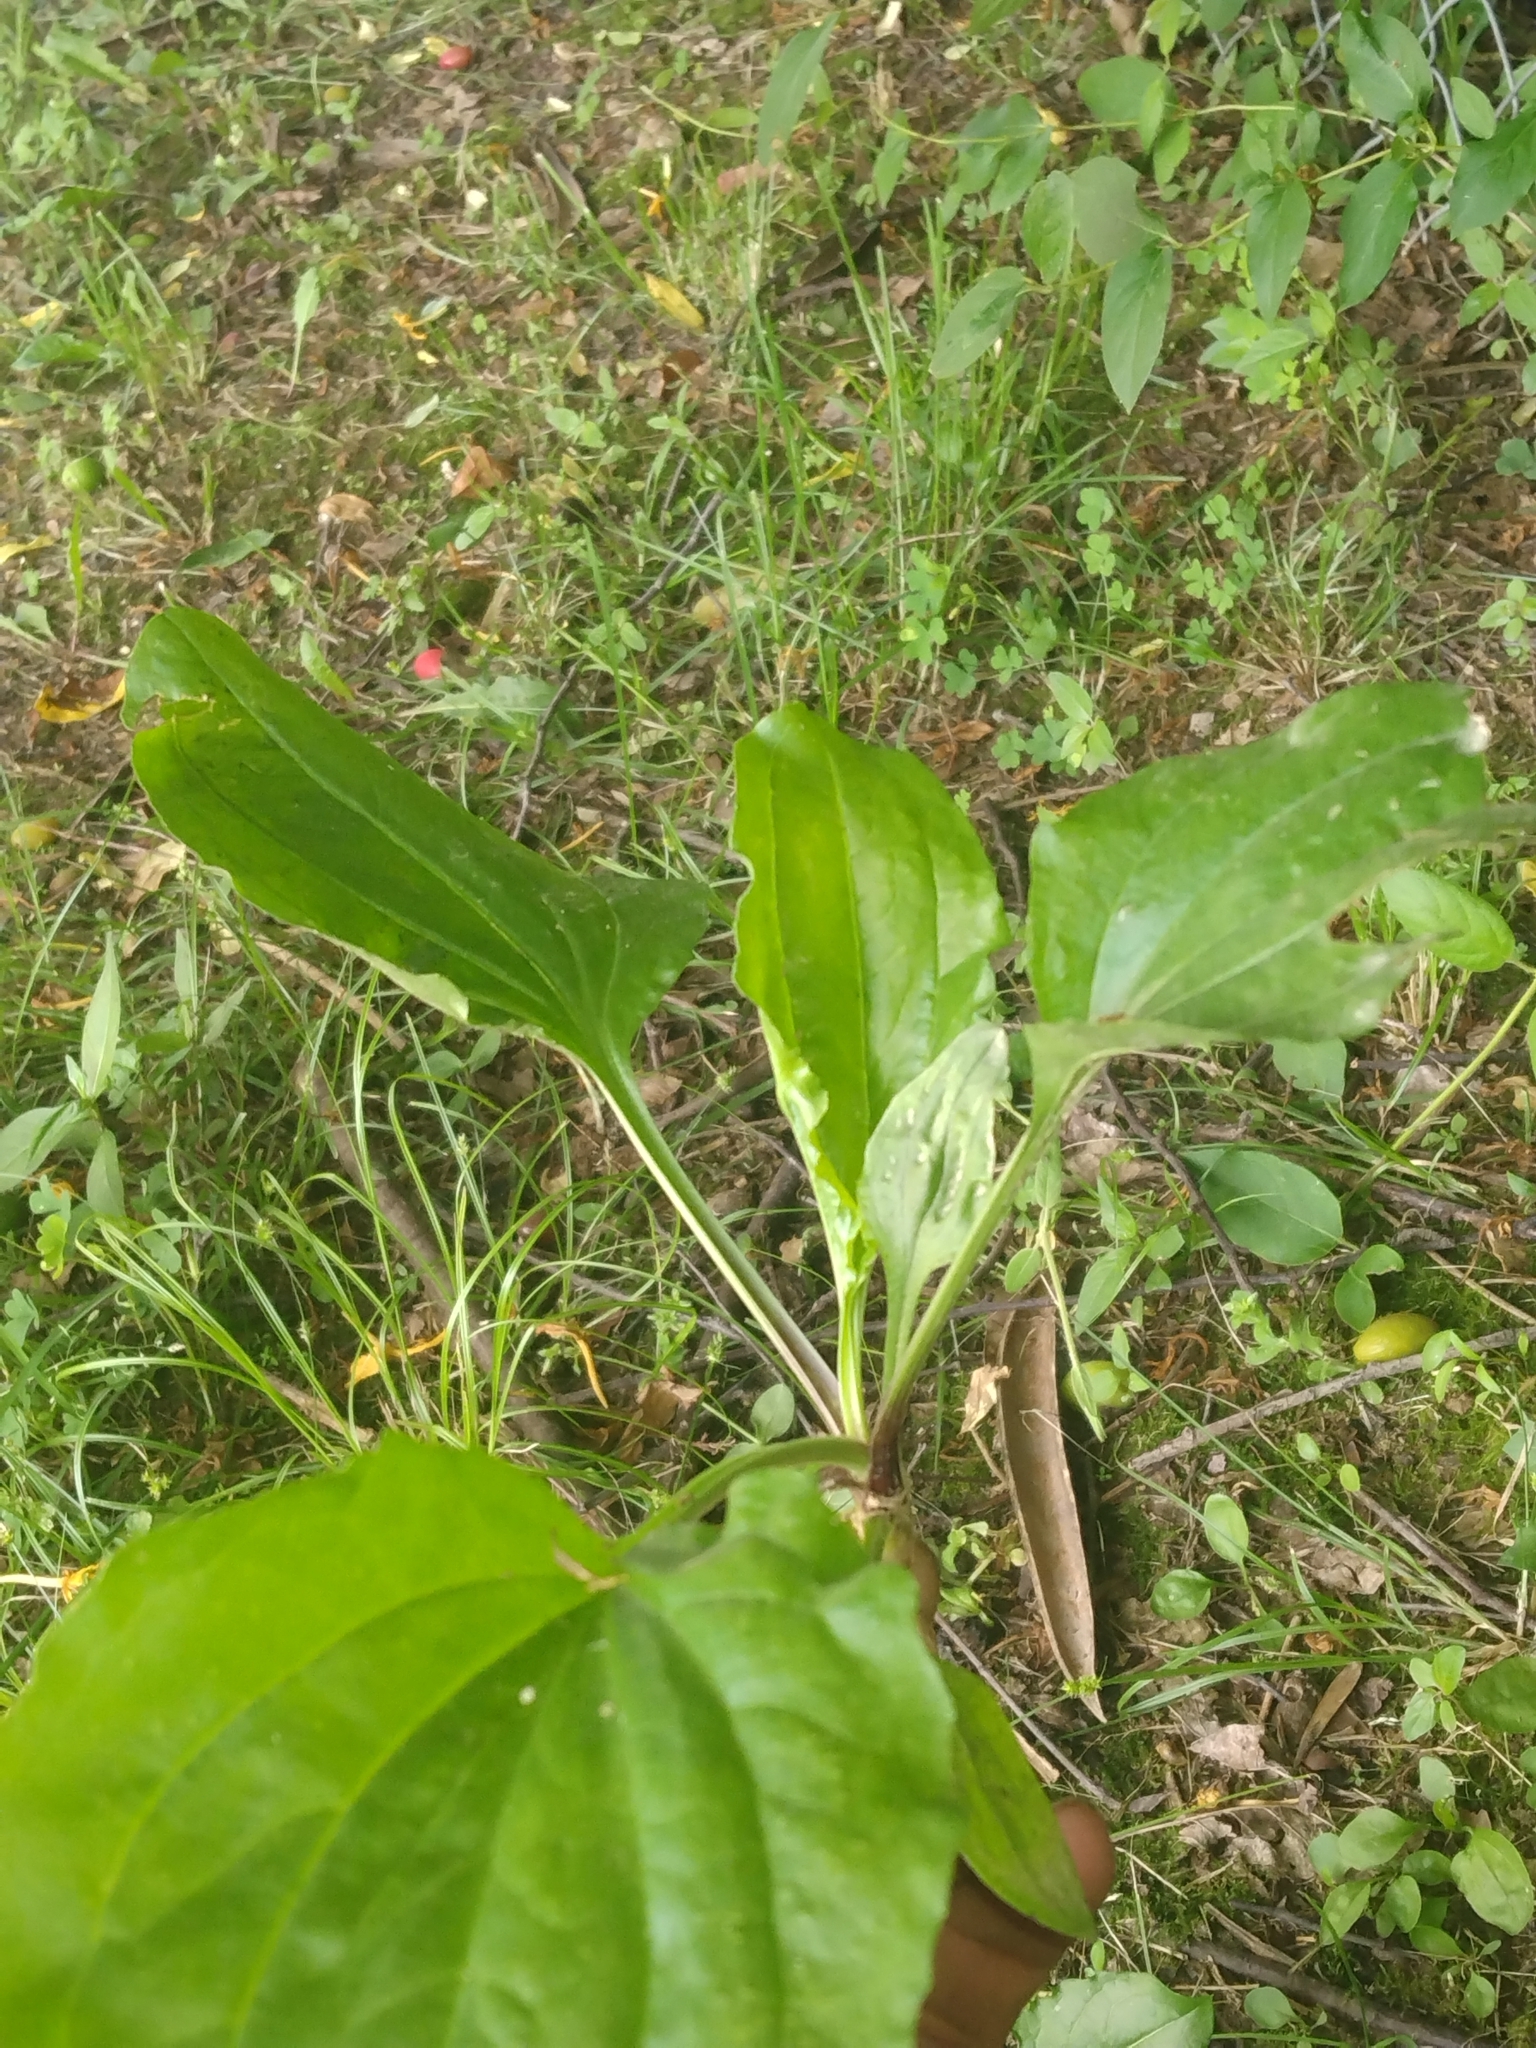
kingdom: Plantae
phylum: Tracheophyta
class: Magnoliopsida
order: Lamiales
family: Plantaginaceae
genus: Plantago
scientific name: Plantago rugelii
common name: American plantain
